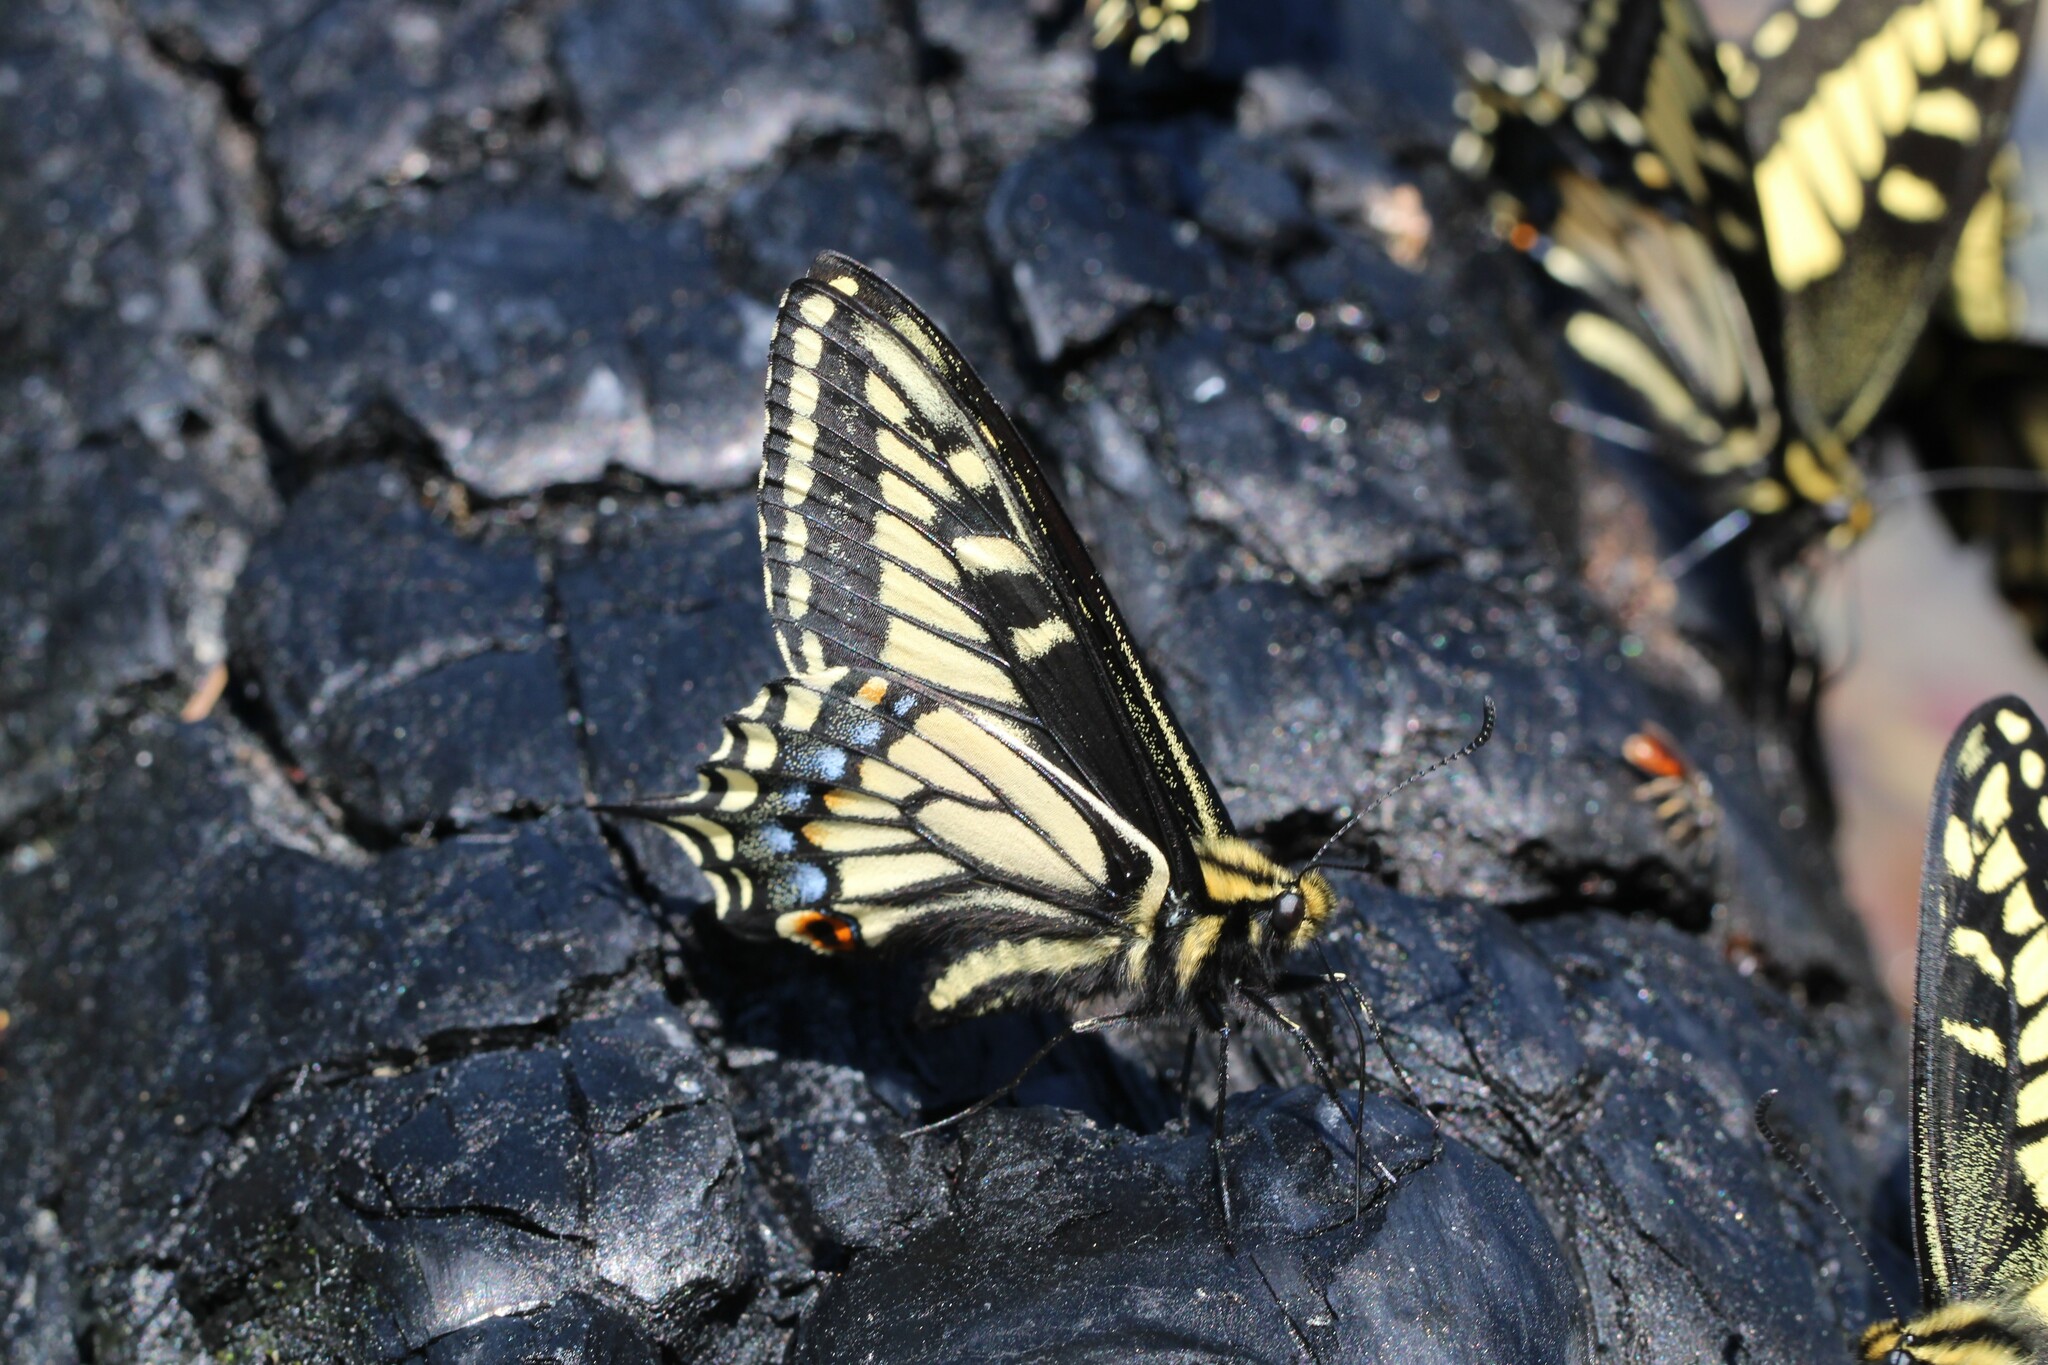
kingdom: Animalia
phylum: Arthropoda
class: Insecta
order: Lepidoptera
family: Papilionidae
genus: Papilio
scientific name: Papilio zelicaon
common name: Anise swallowtail
